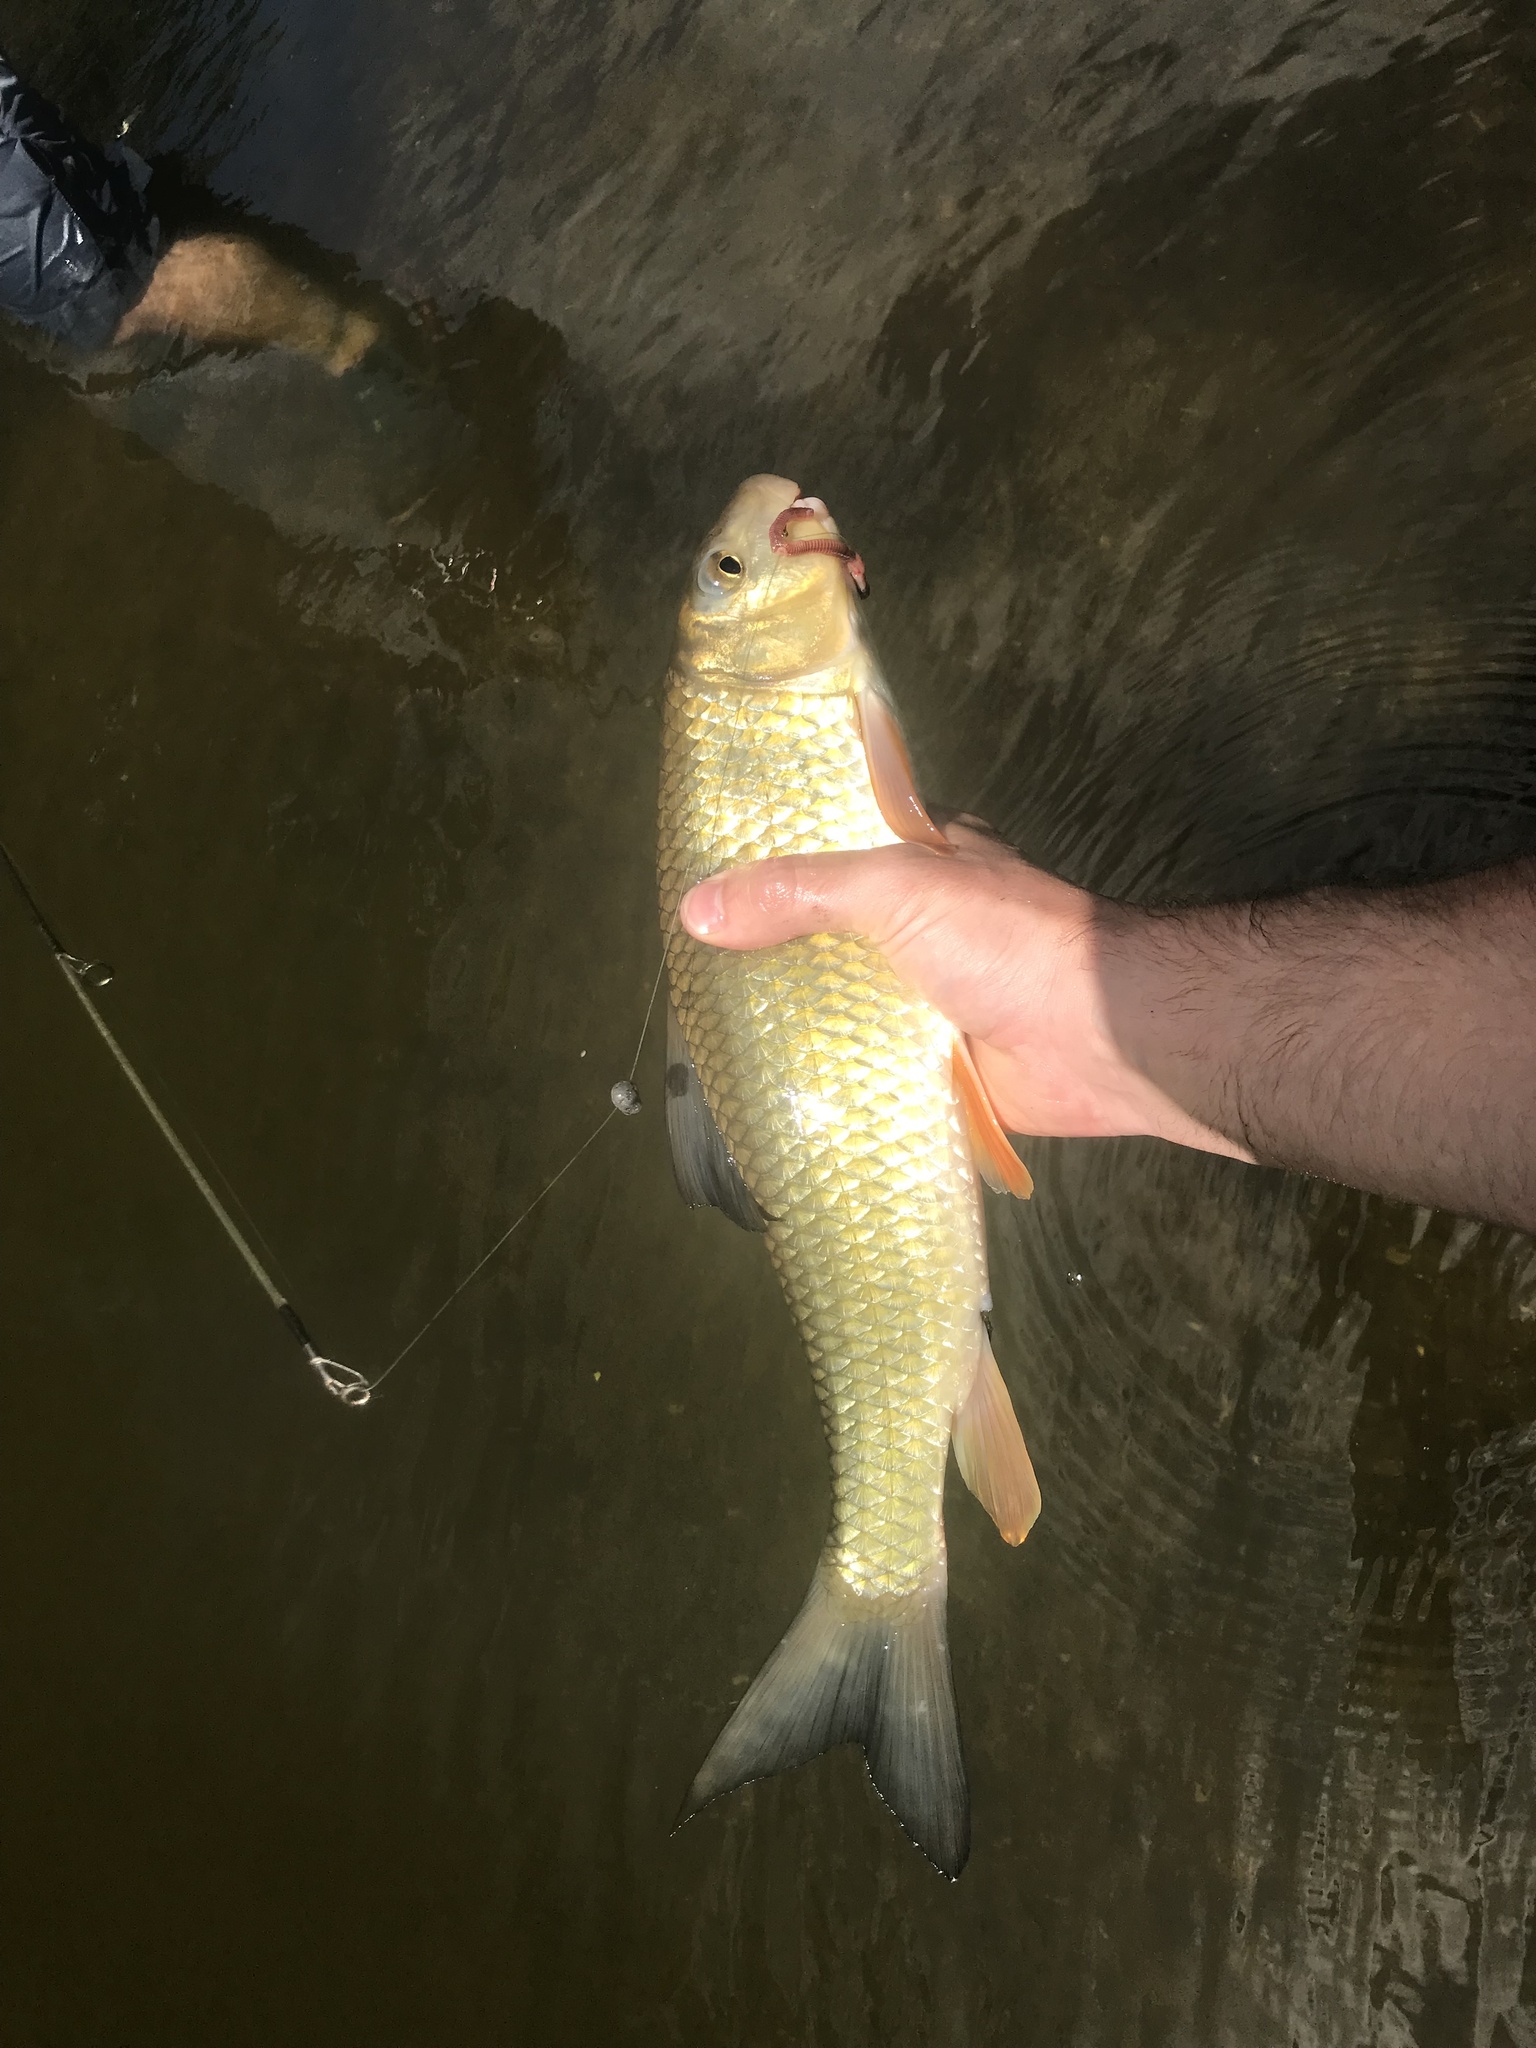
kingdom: Animalia
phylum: Chordata
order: Cypriniformes
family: Catostomidae
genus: Moxostoma
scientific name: Moxostoma erythrurum
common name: Golden redhorse
